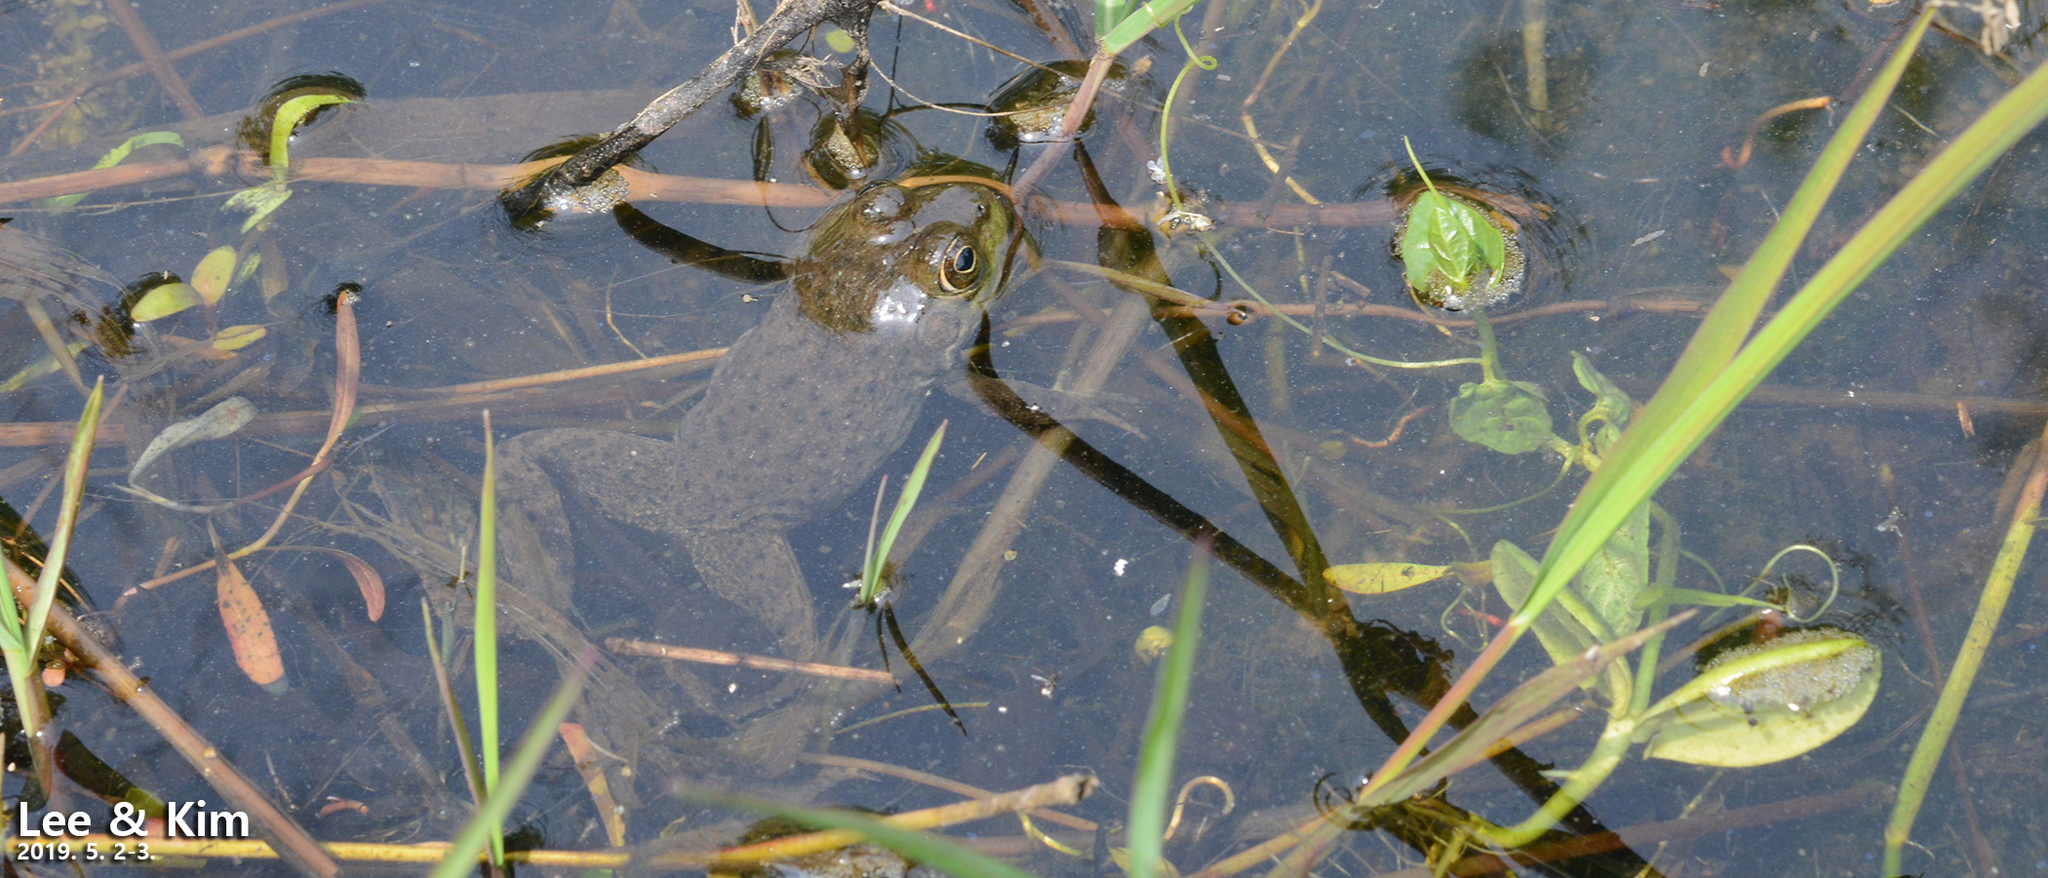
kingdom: Animalia
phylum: Chordata
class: Amphibia
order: Anura
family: Ranidae
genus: Lithobates
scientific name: Lithobates catesbeianus
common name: American bullfrog
